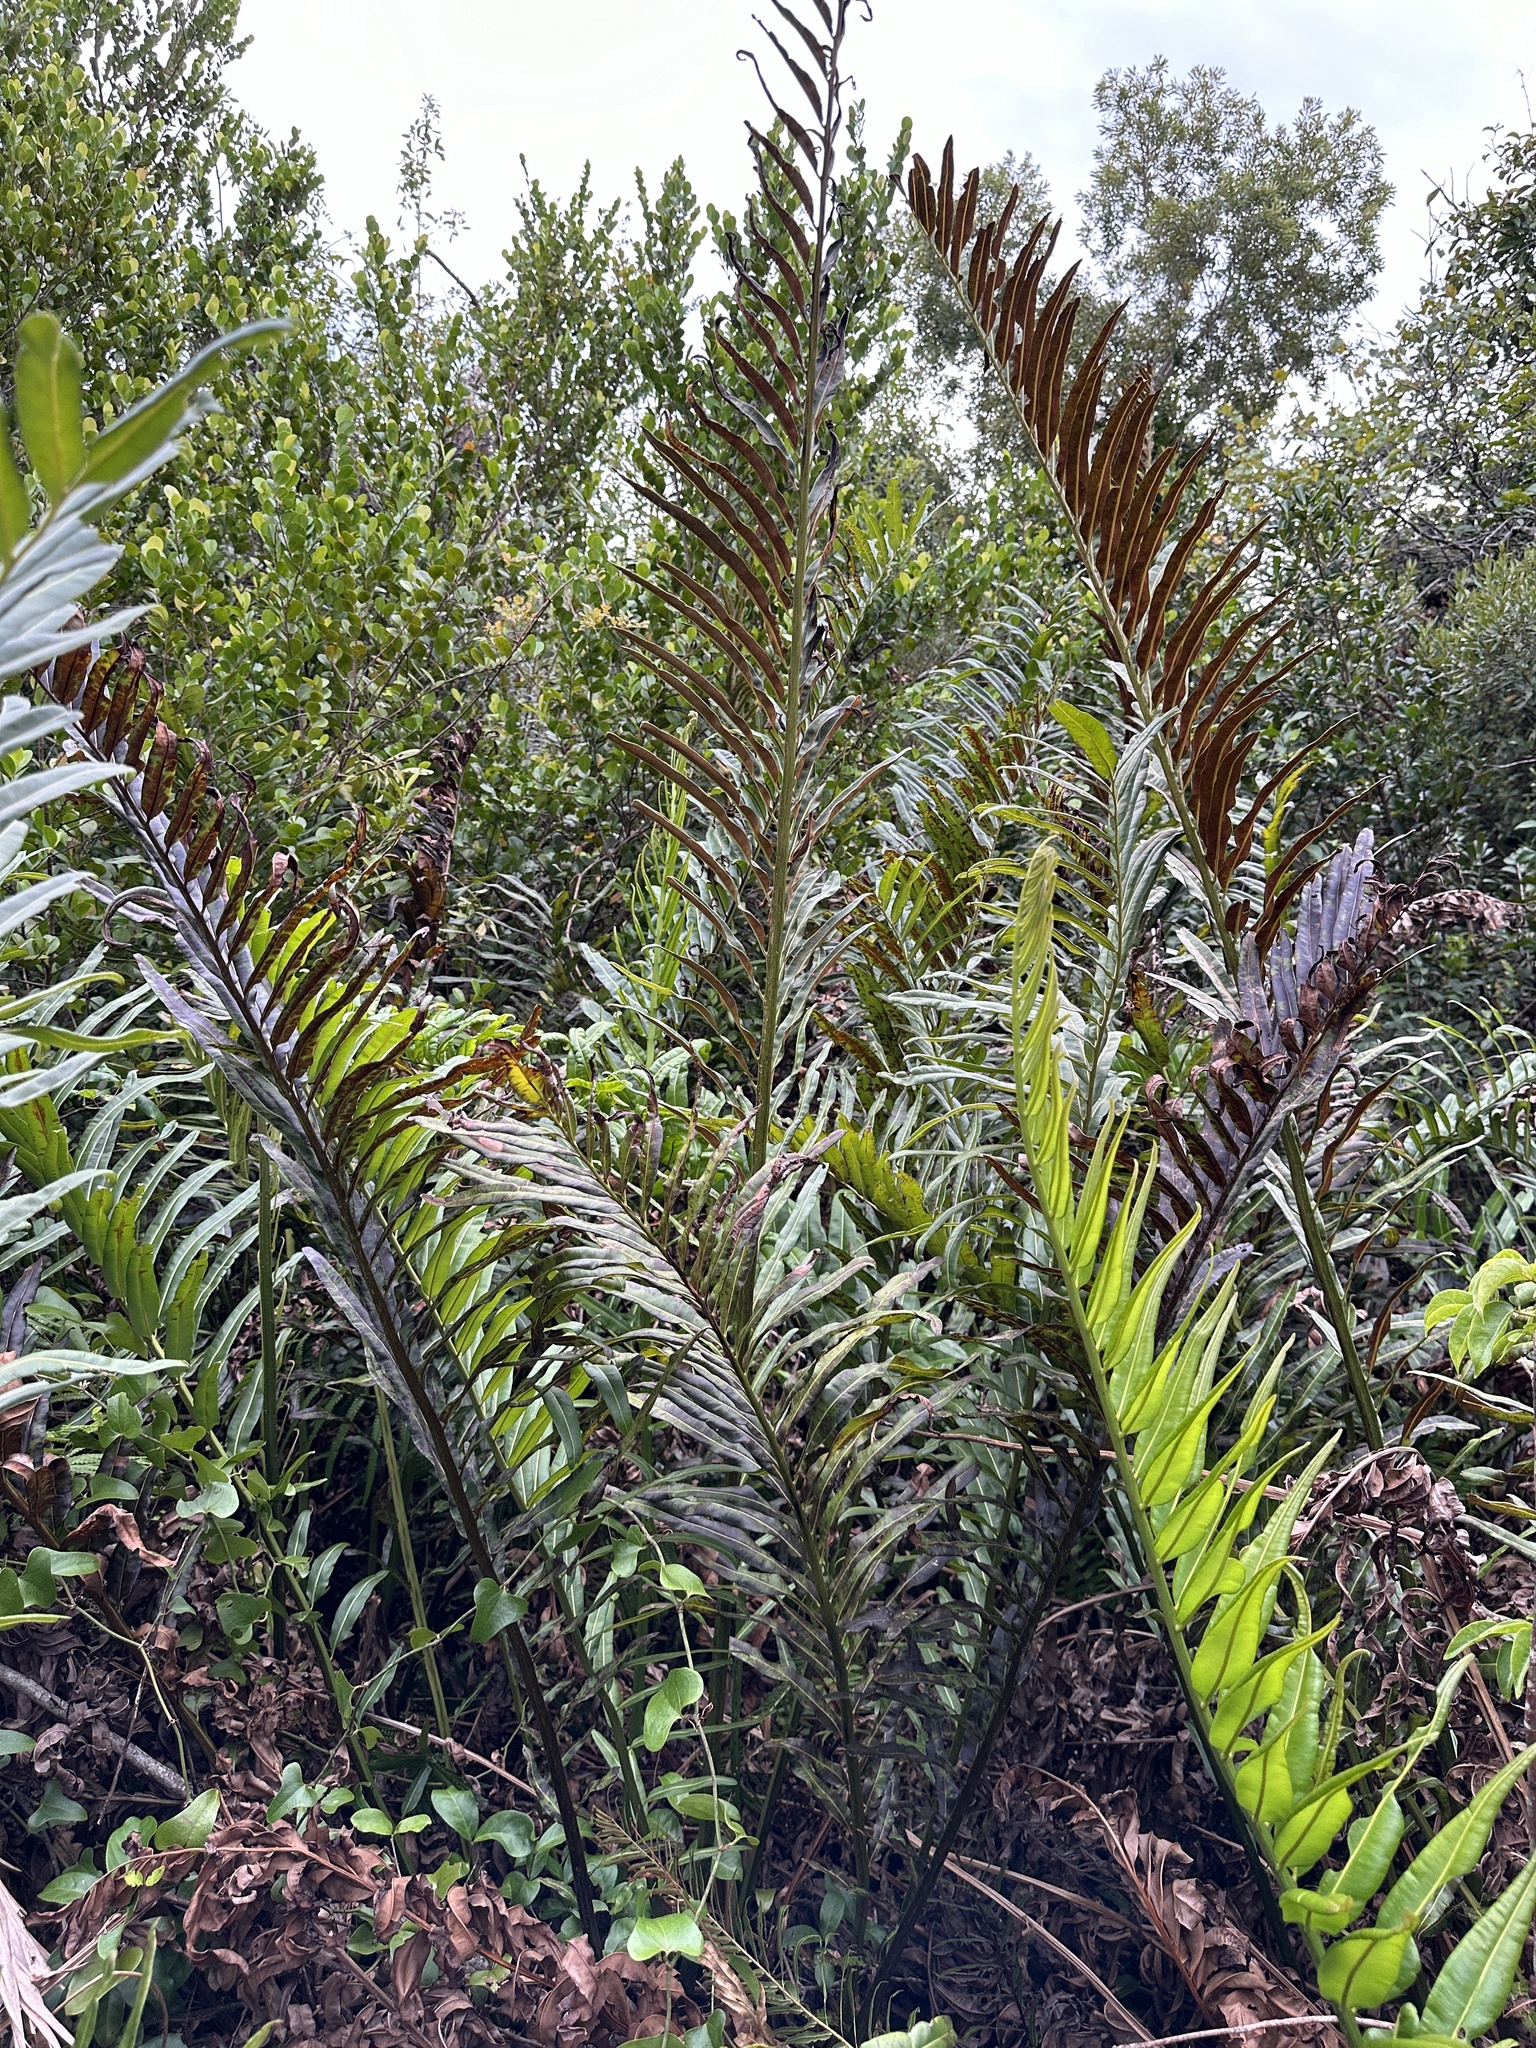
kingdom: Plantae
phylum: Tracheophyta
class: Polypodiopsida
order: Polypodiales
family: Pteridaceae
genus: Acrostichum
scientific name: Acrostichum danaeifolium
